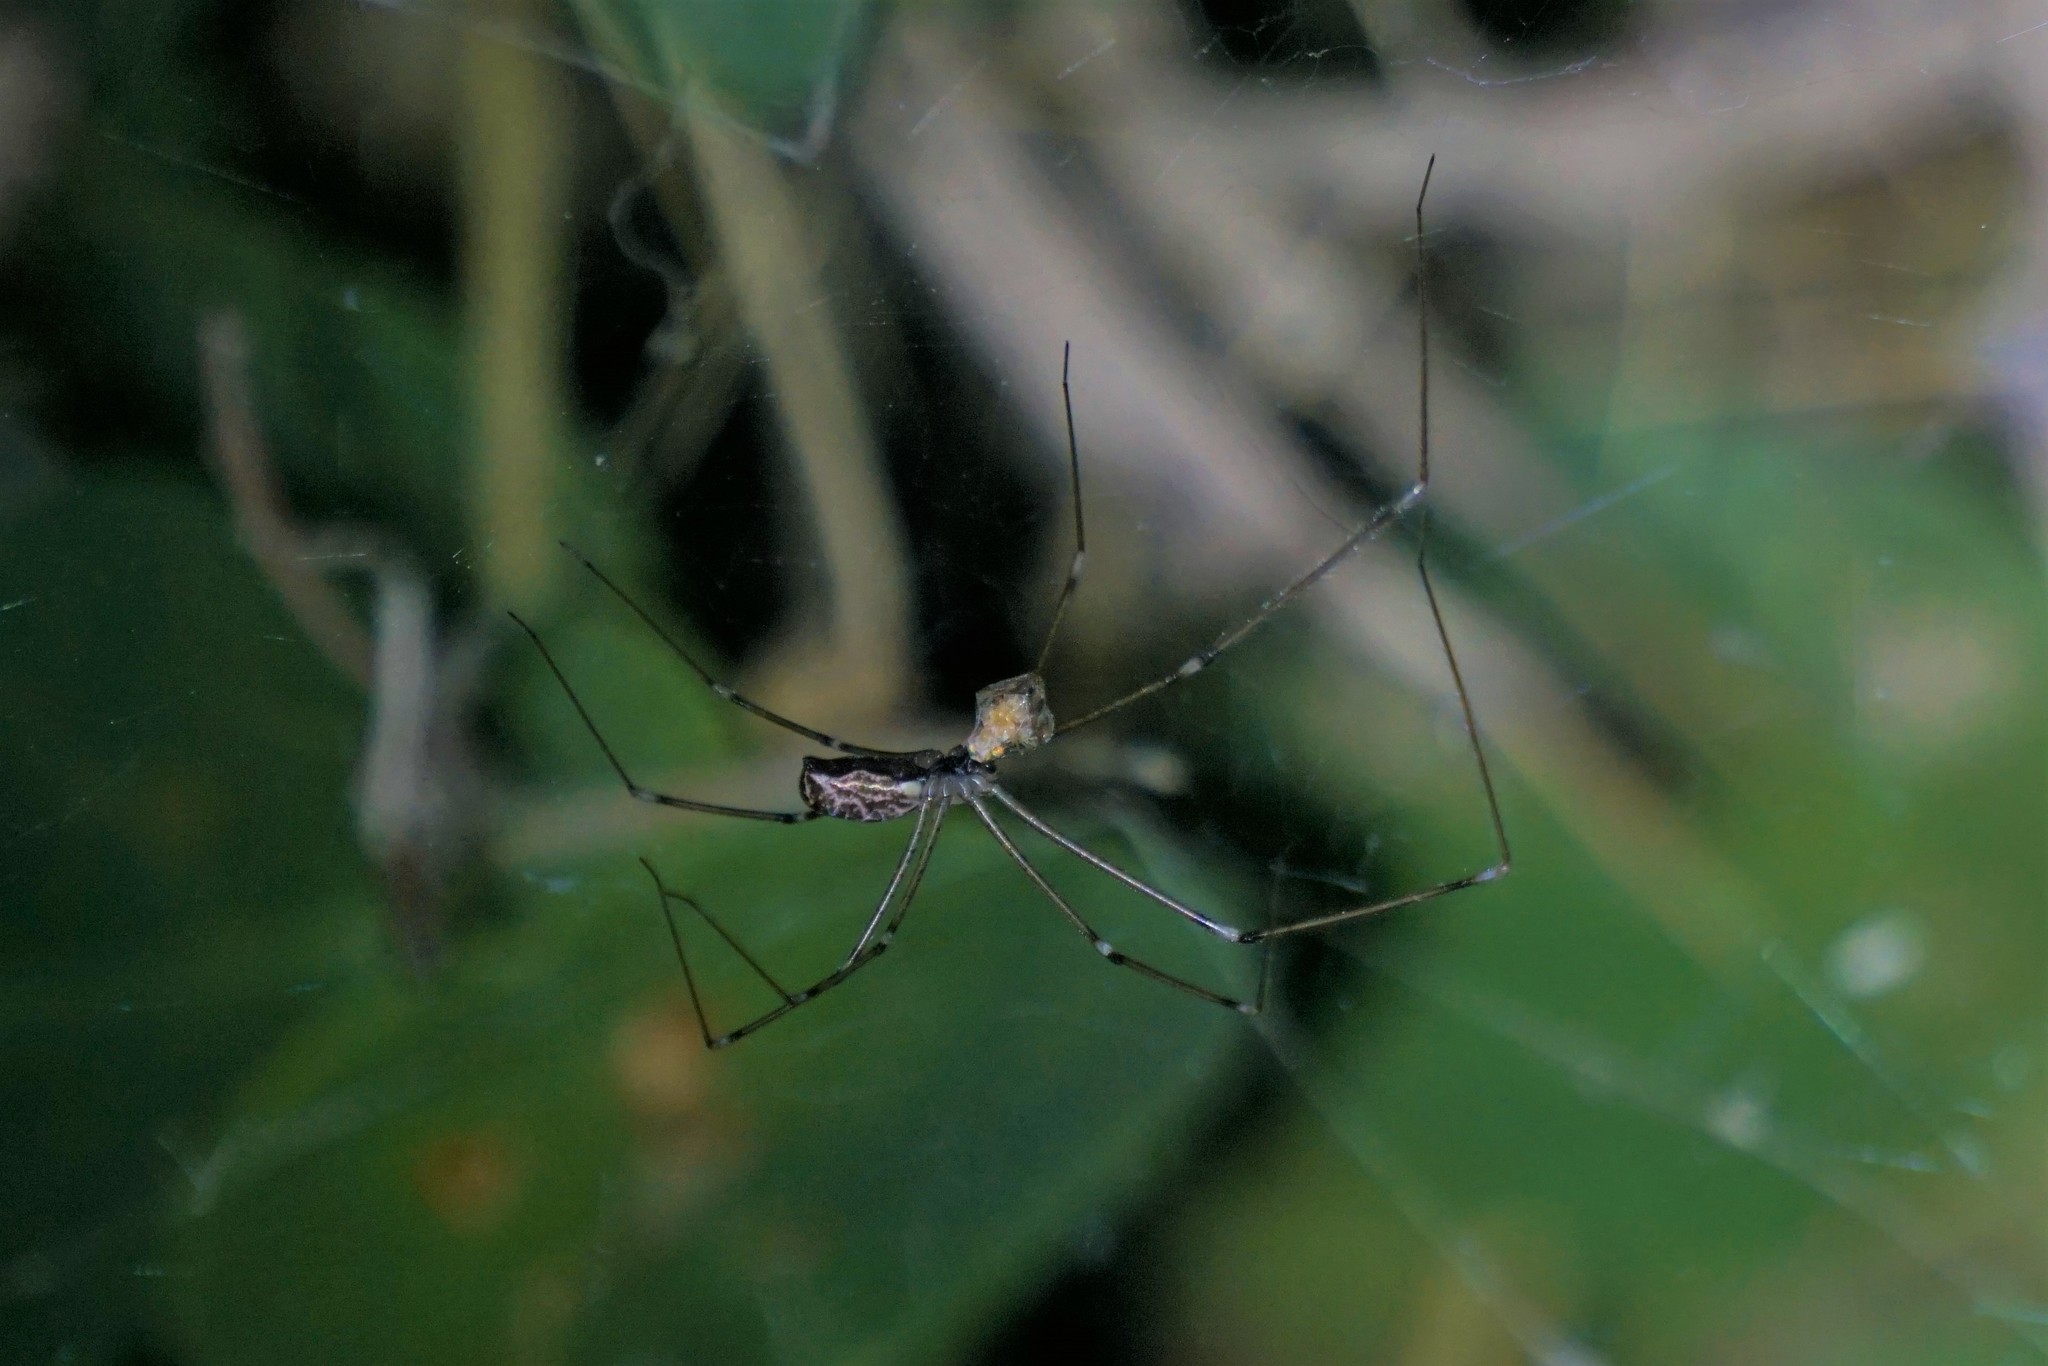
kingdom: Animalia
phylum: Arthropoda
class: Arachnida
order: Araneae
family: Pholcidae
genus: Holocnemus
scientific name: Holocnemus pluchei
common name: Marbled cellar spider
